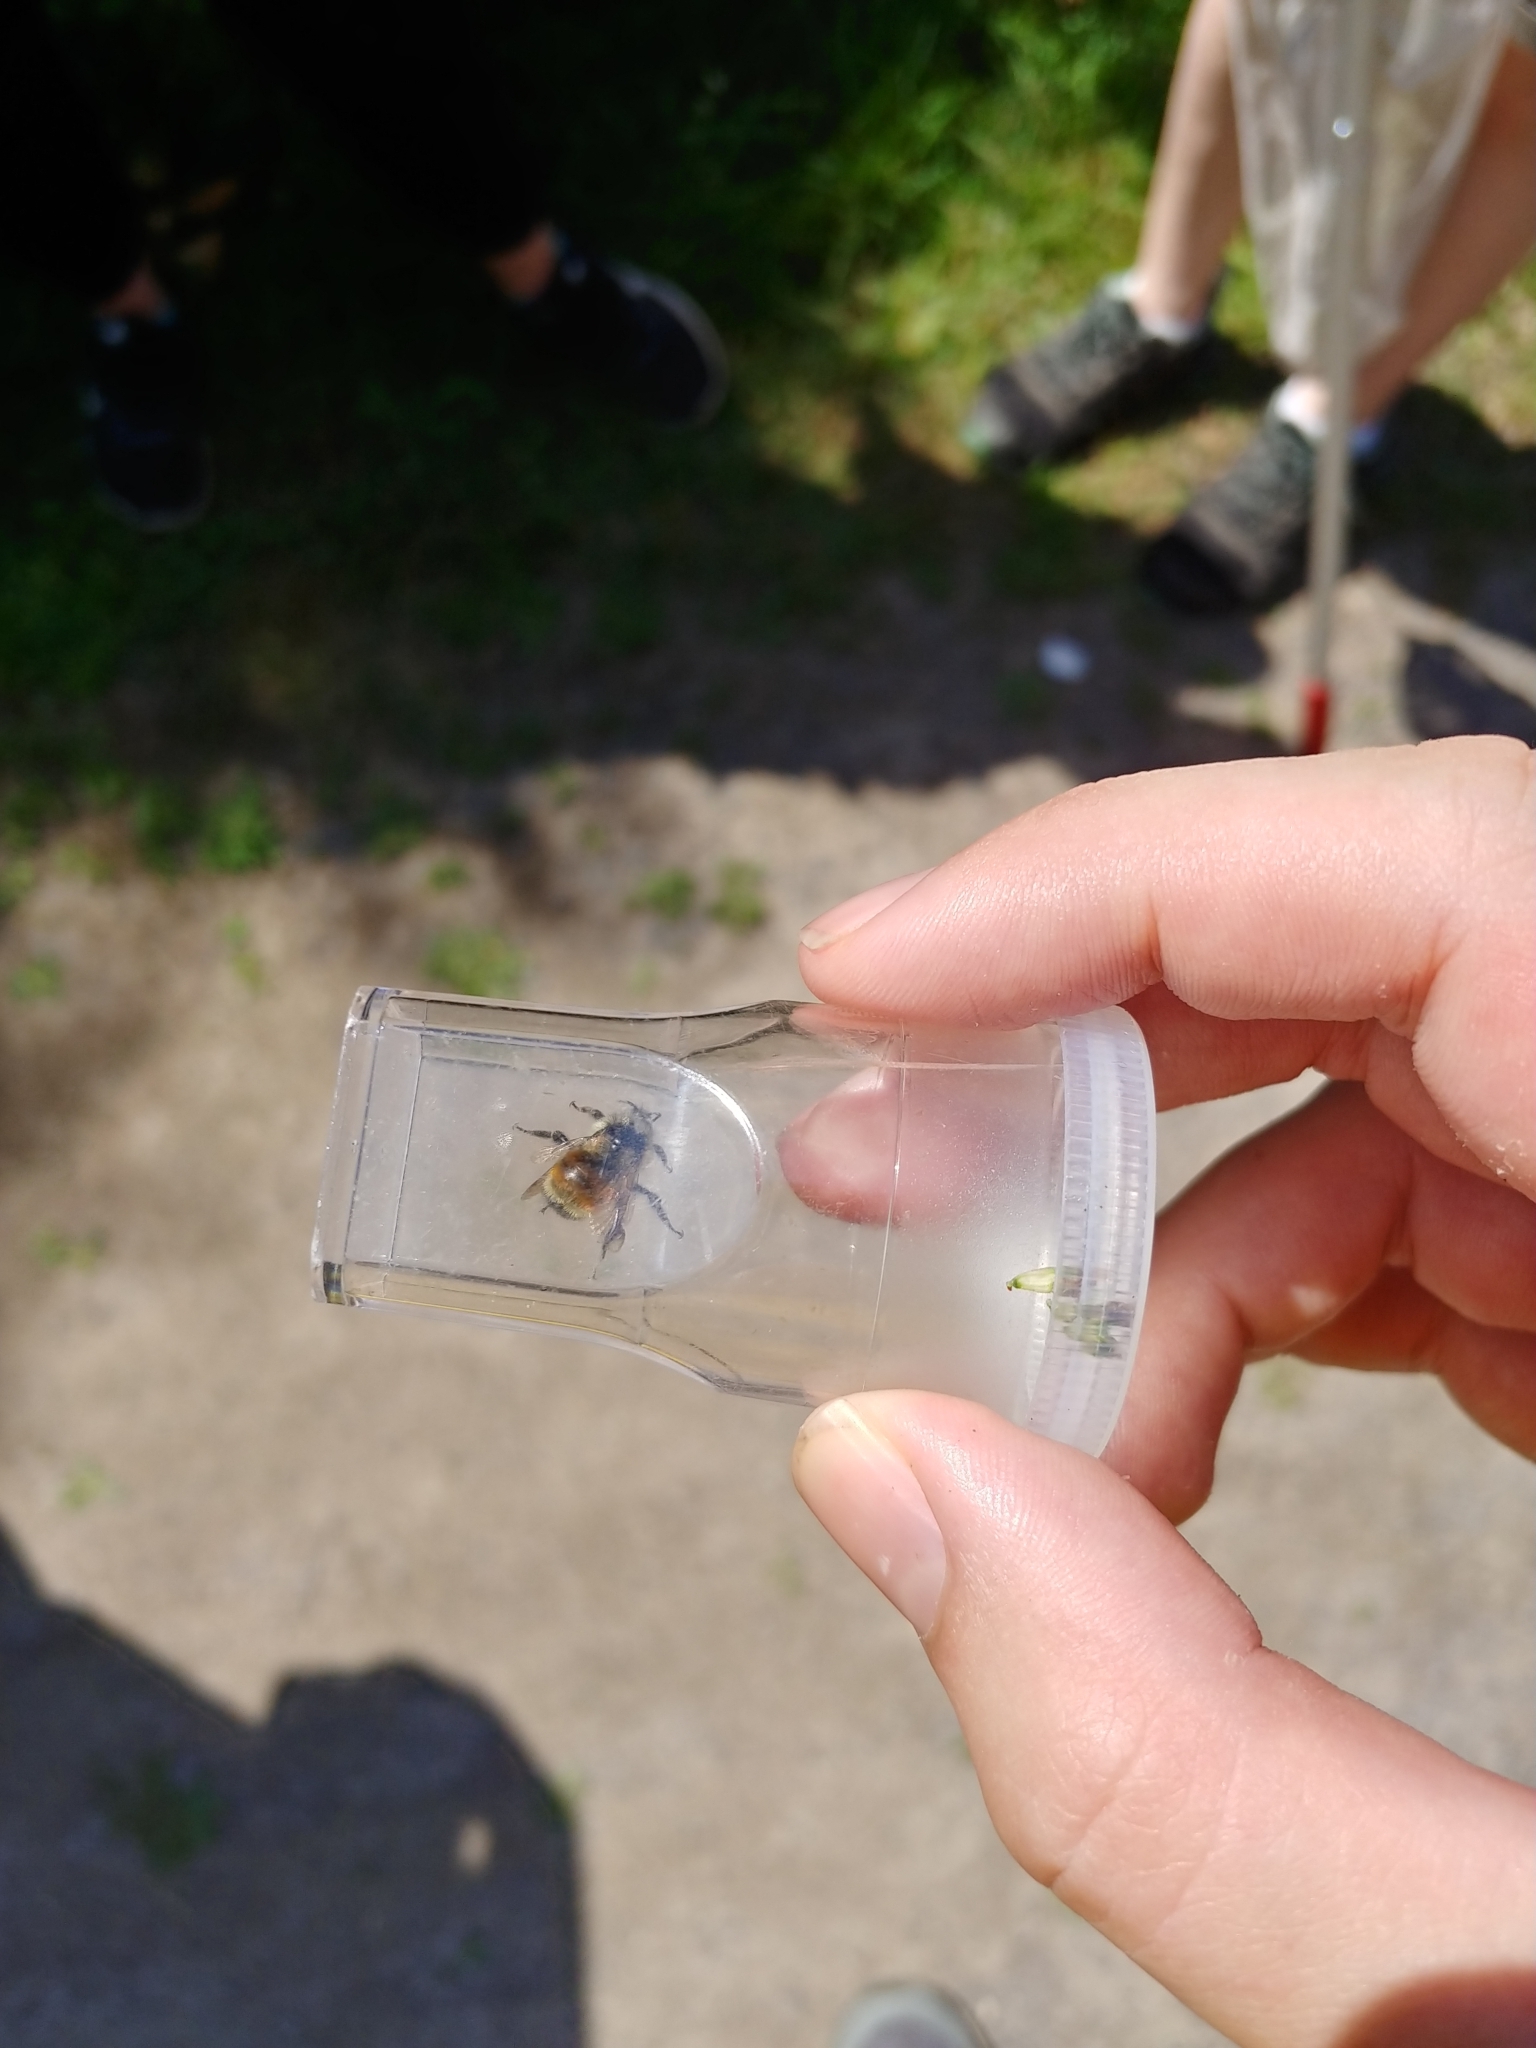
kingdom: Animalia
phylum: Arthropoda
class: Insecta
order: Hymenoptera
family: Apidae
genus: Bombus
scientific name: Bombus ternarius
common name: Tri-colored bumble bee
